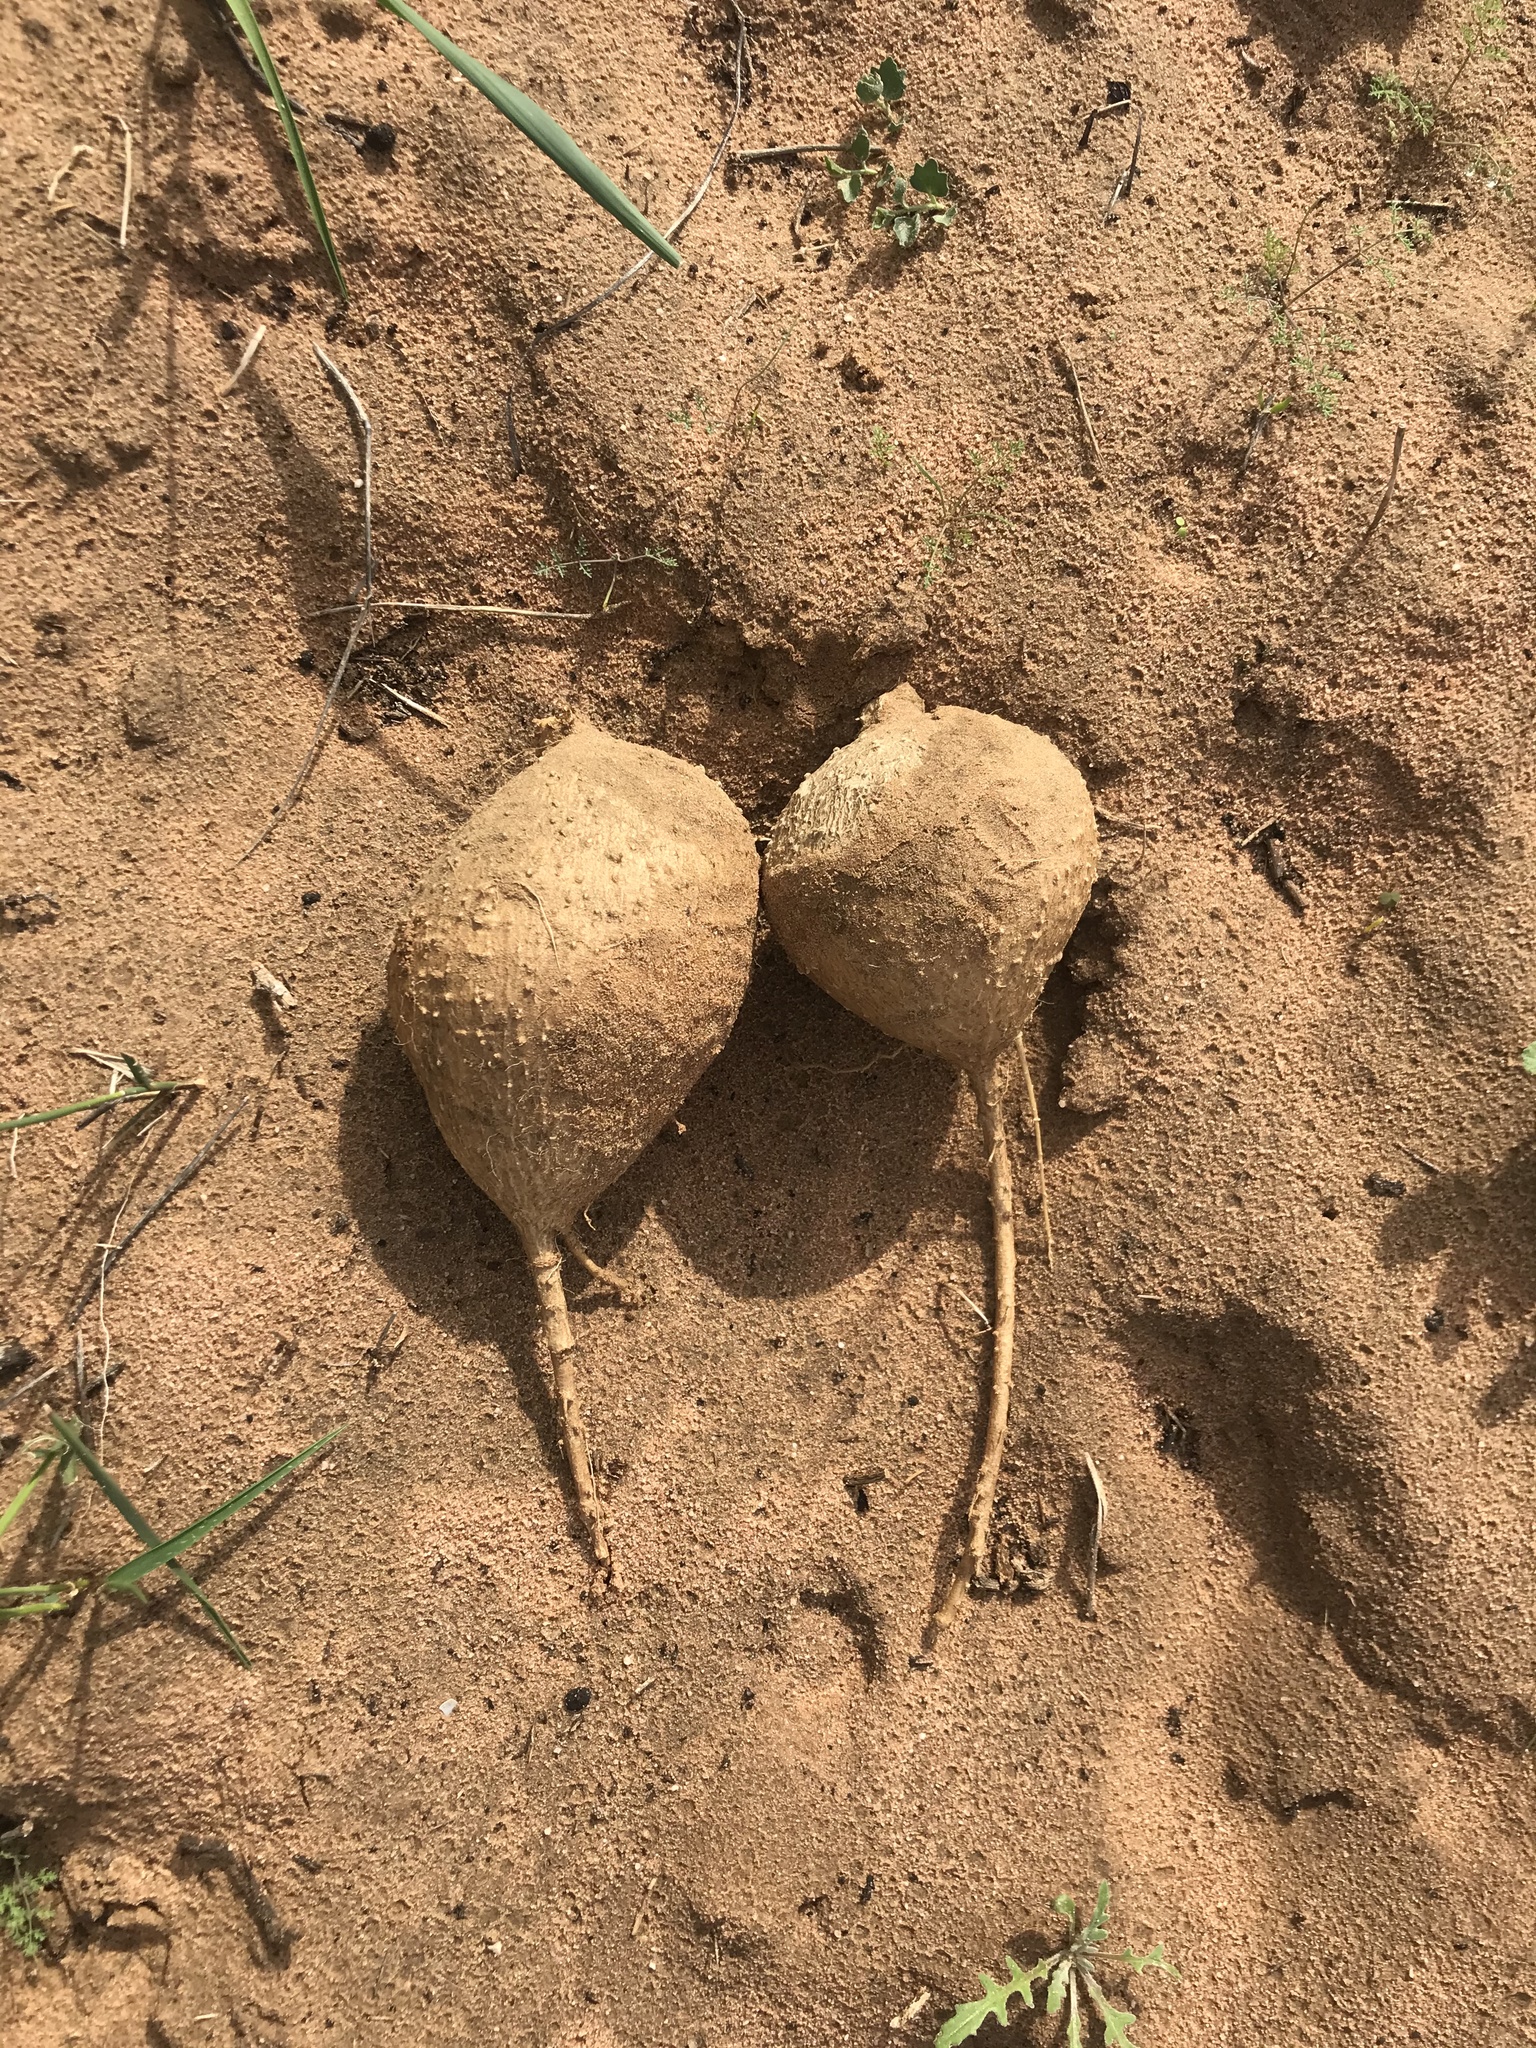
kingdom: Plantae
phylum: Tracheophyta
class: Magnoliopsida
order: Cucurbitales
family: Cucurbitaceae
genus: Kedrostis
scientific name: Kedrostis psammophila
